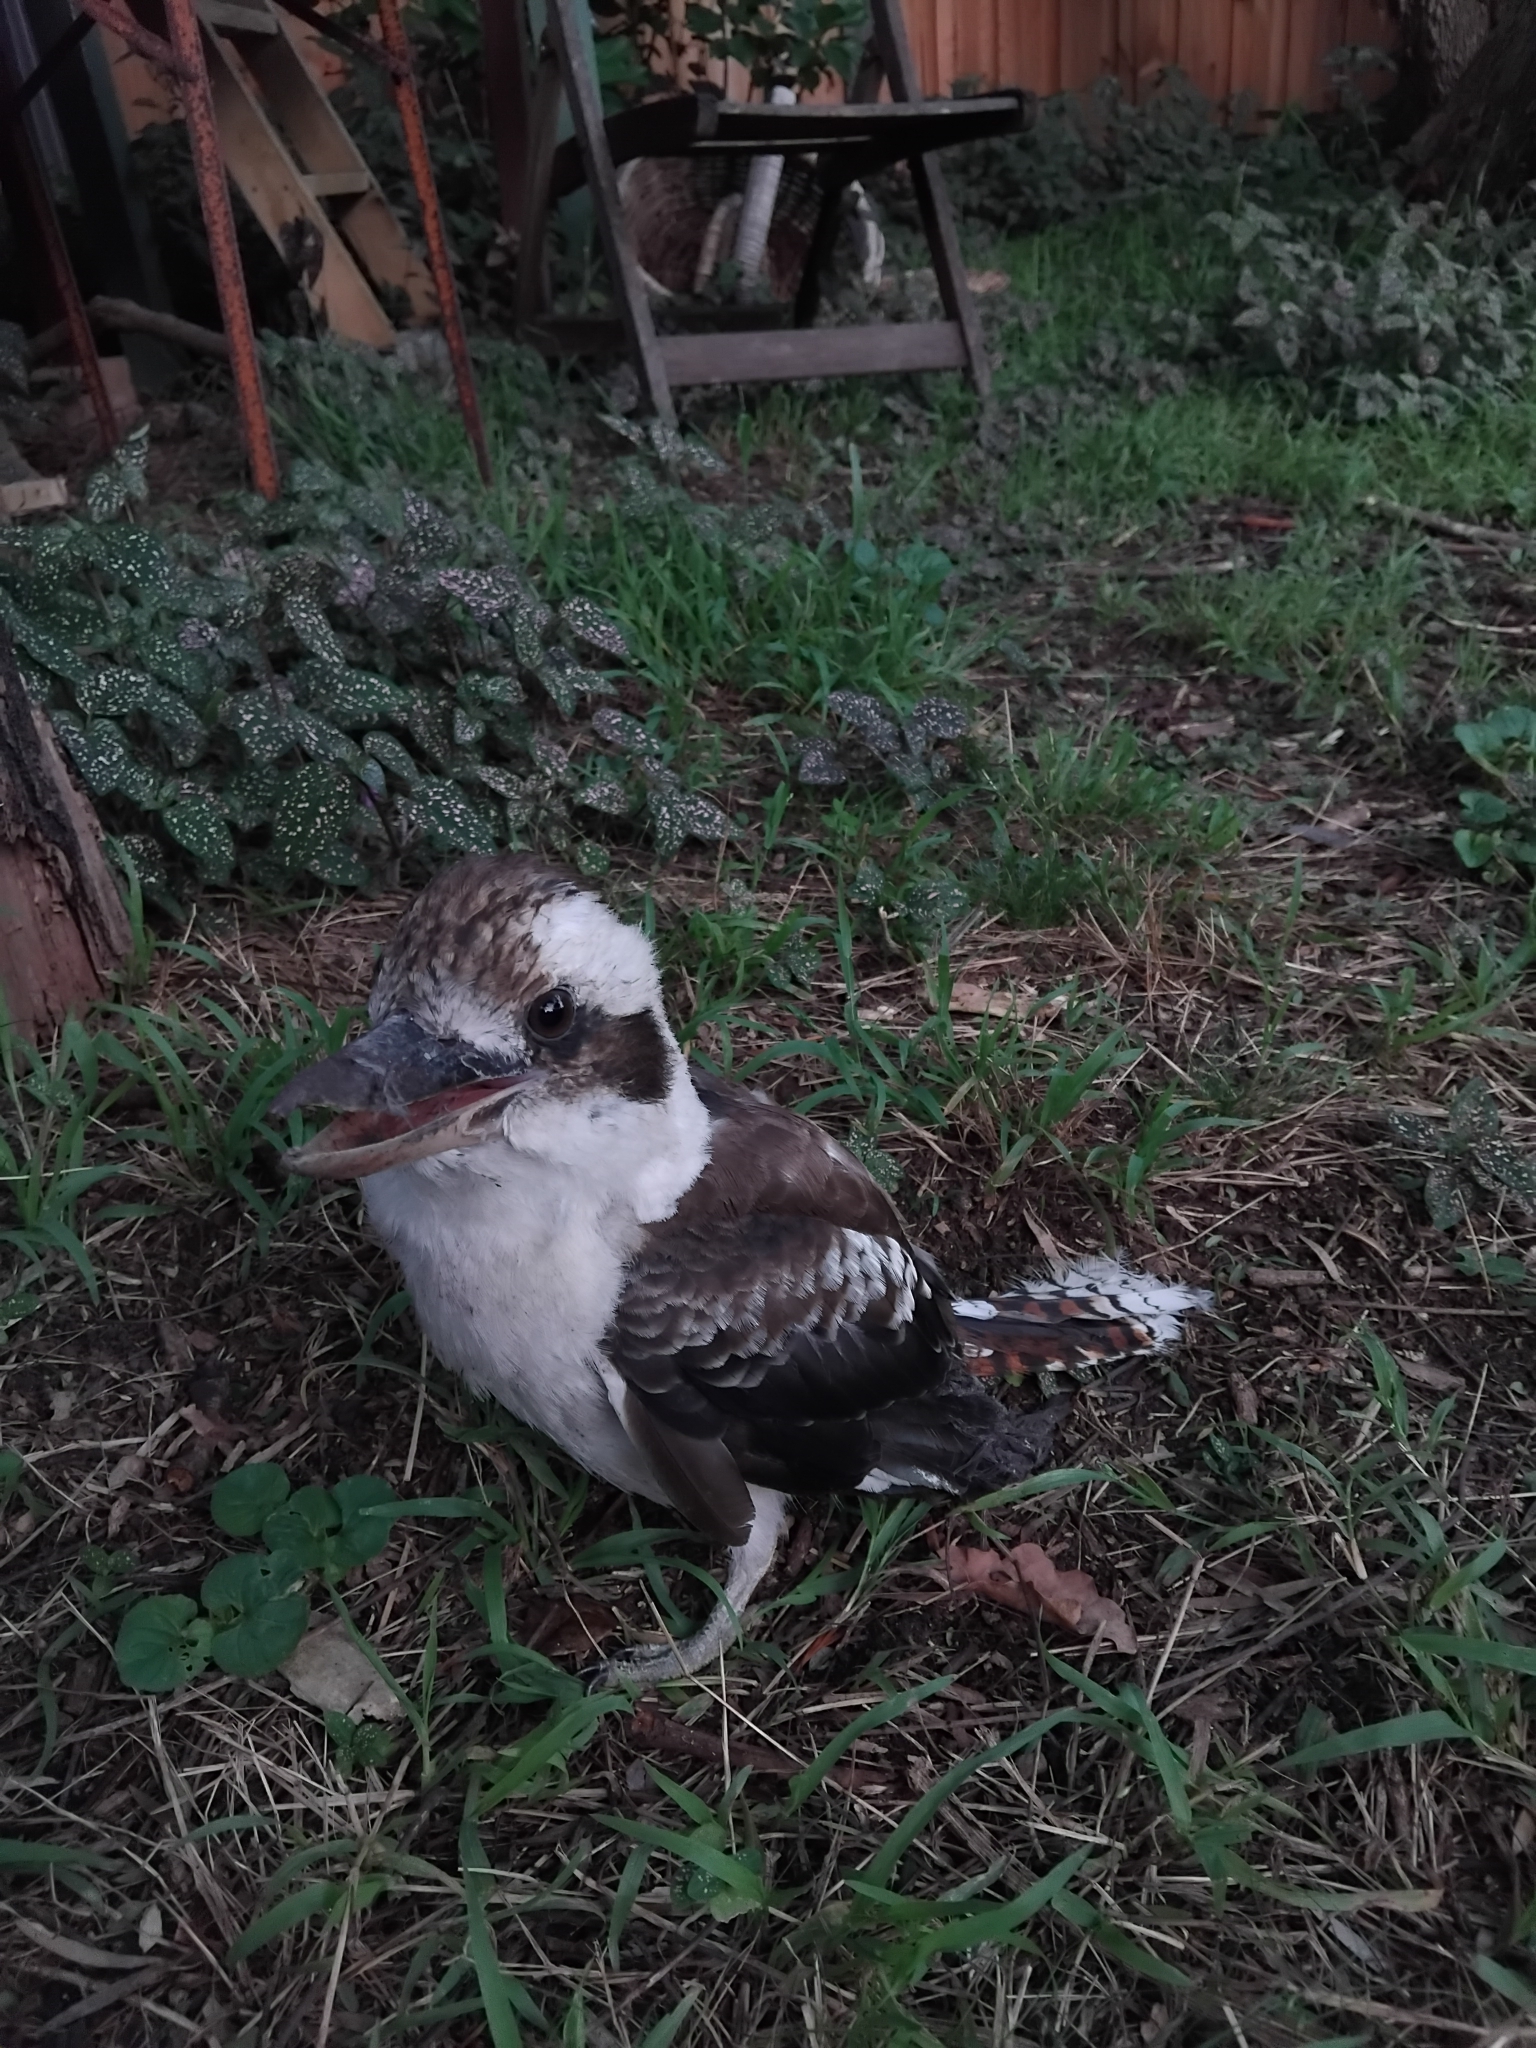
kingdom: Animalia
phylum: Chordata
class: Aves
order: Coraciiformes
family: Alcedinidae
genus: Dacelo
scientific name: Dacelo novaeguineae
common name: Laughing kookaburra
